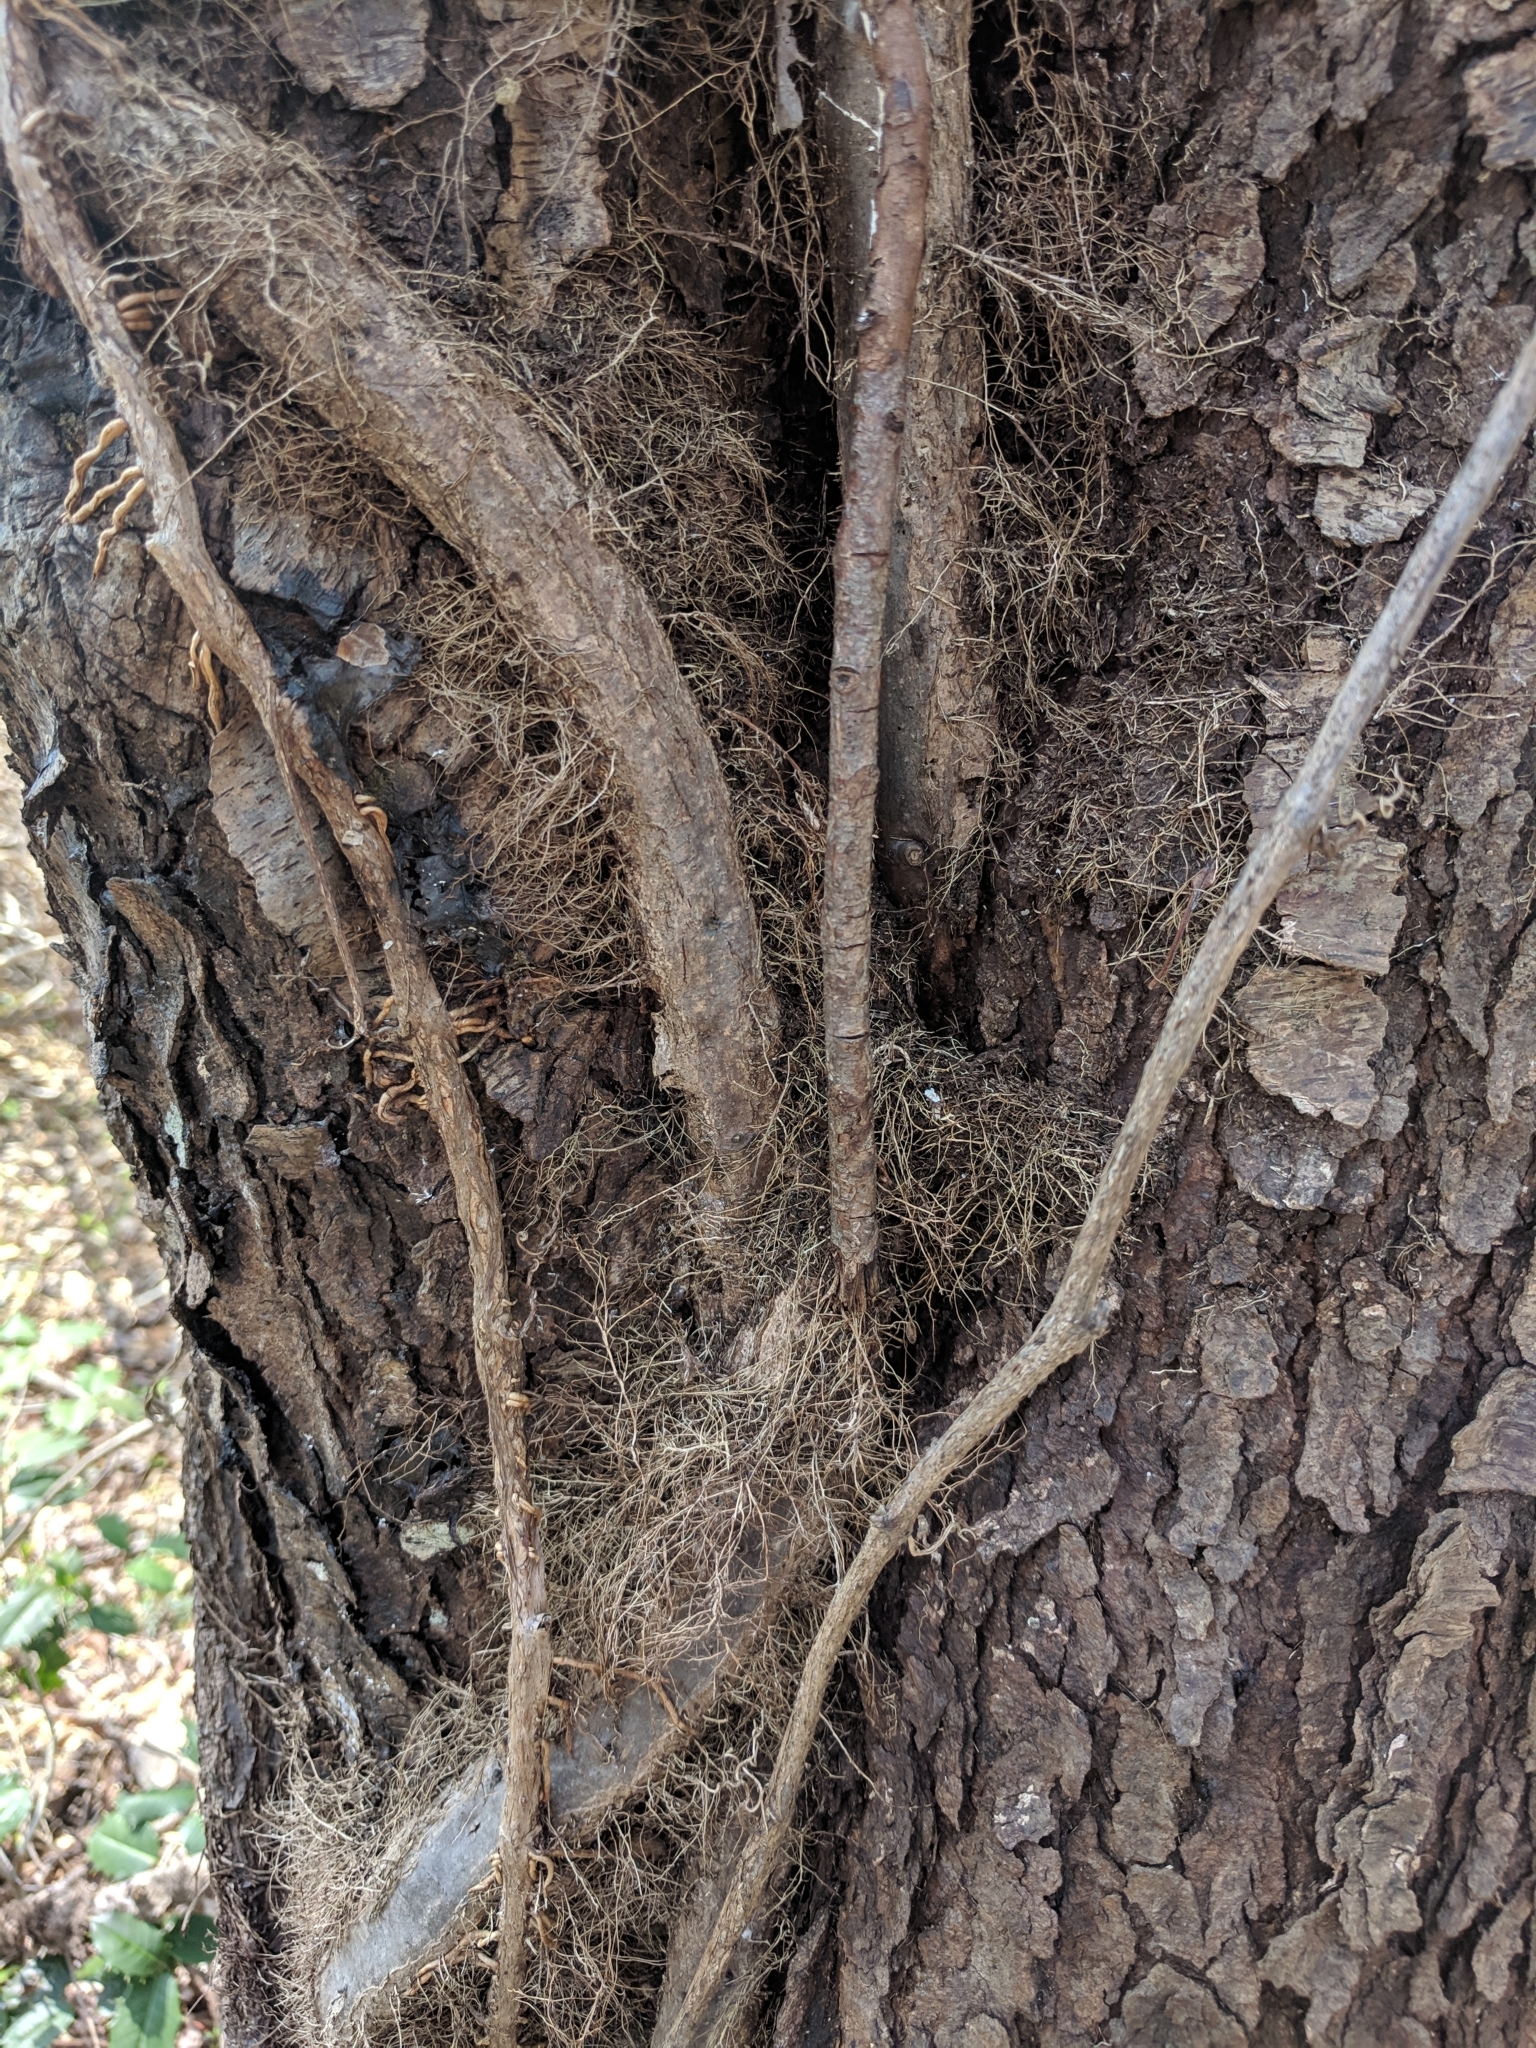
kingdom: Plantae
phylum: Tracheophyta
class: Magnoliopsida
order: Sapindales
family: Anacardiaceae
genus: Toxicodendron
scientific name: Toxicodendron radicans
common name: Poison ivy
